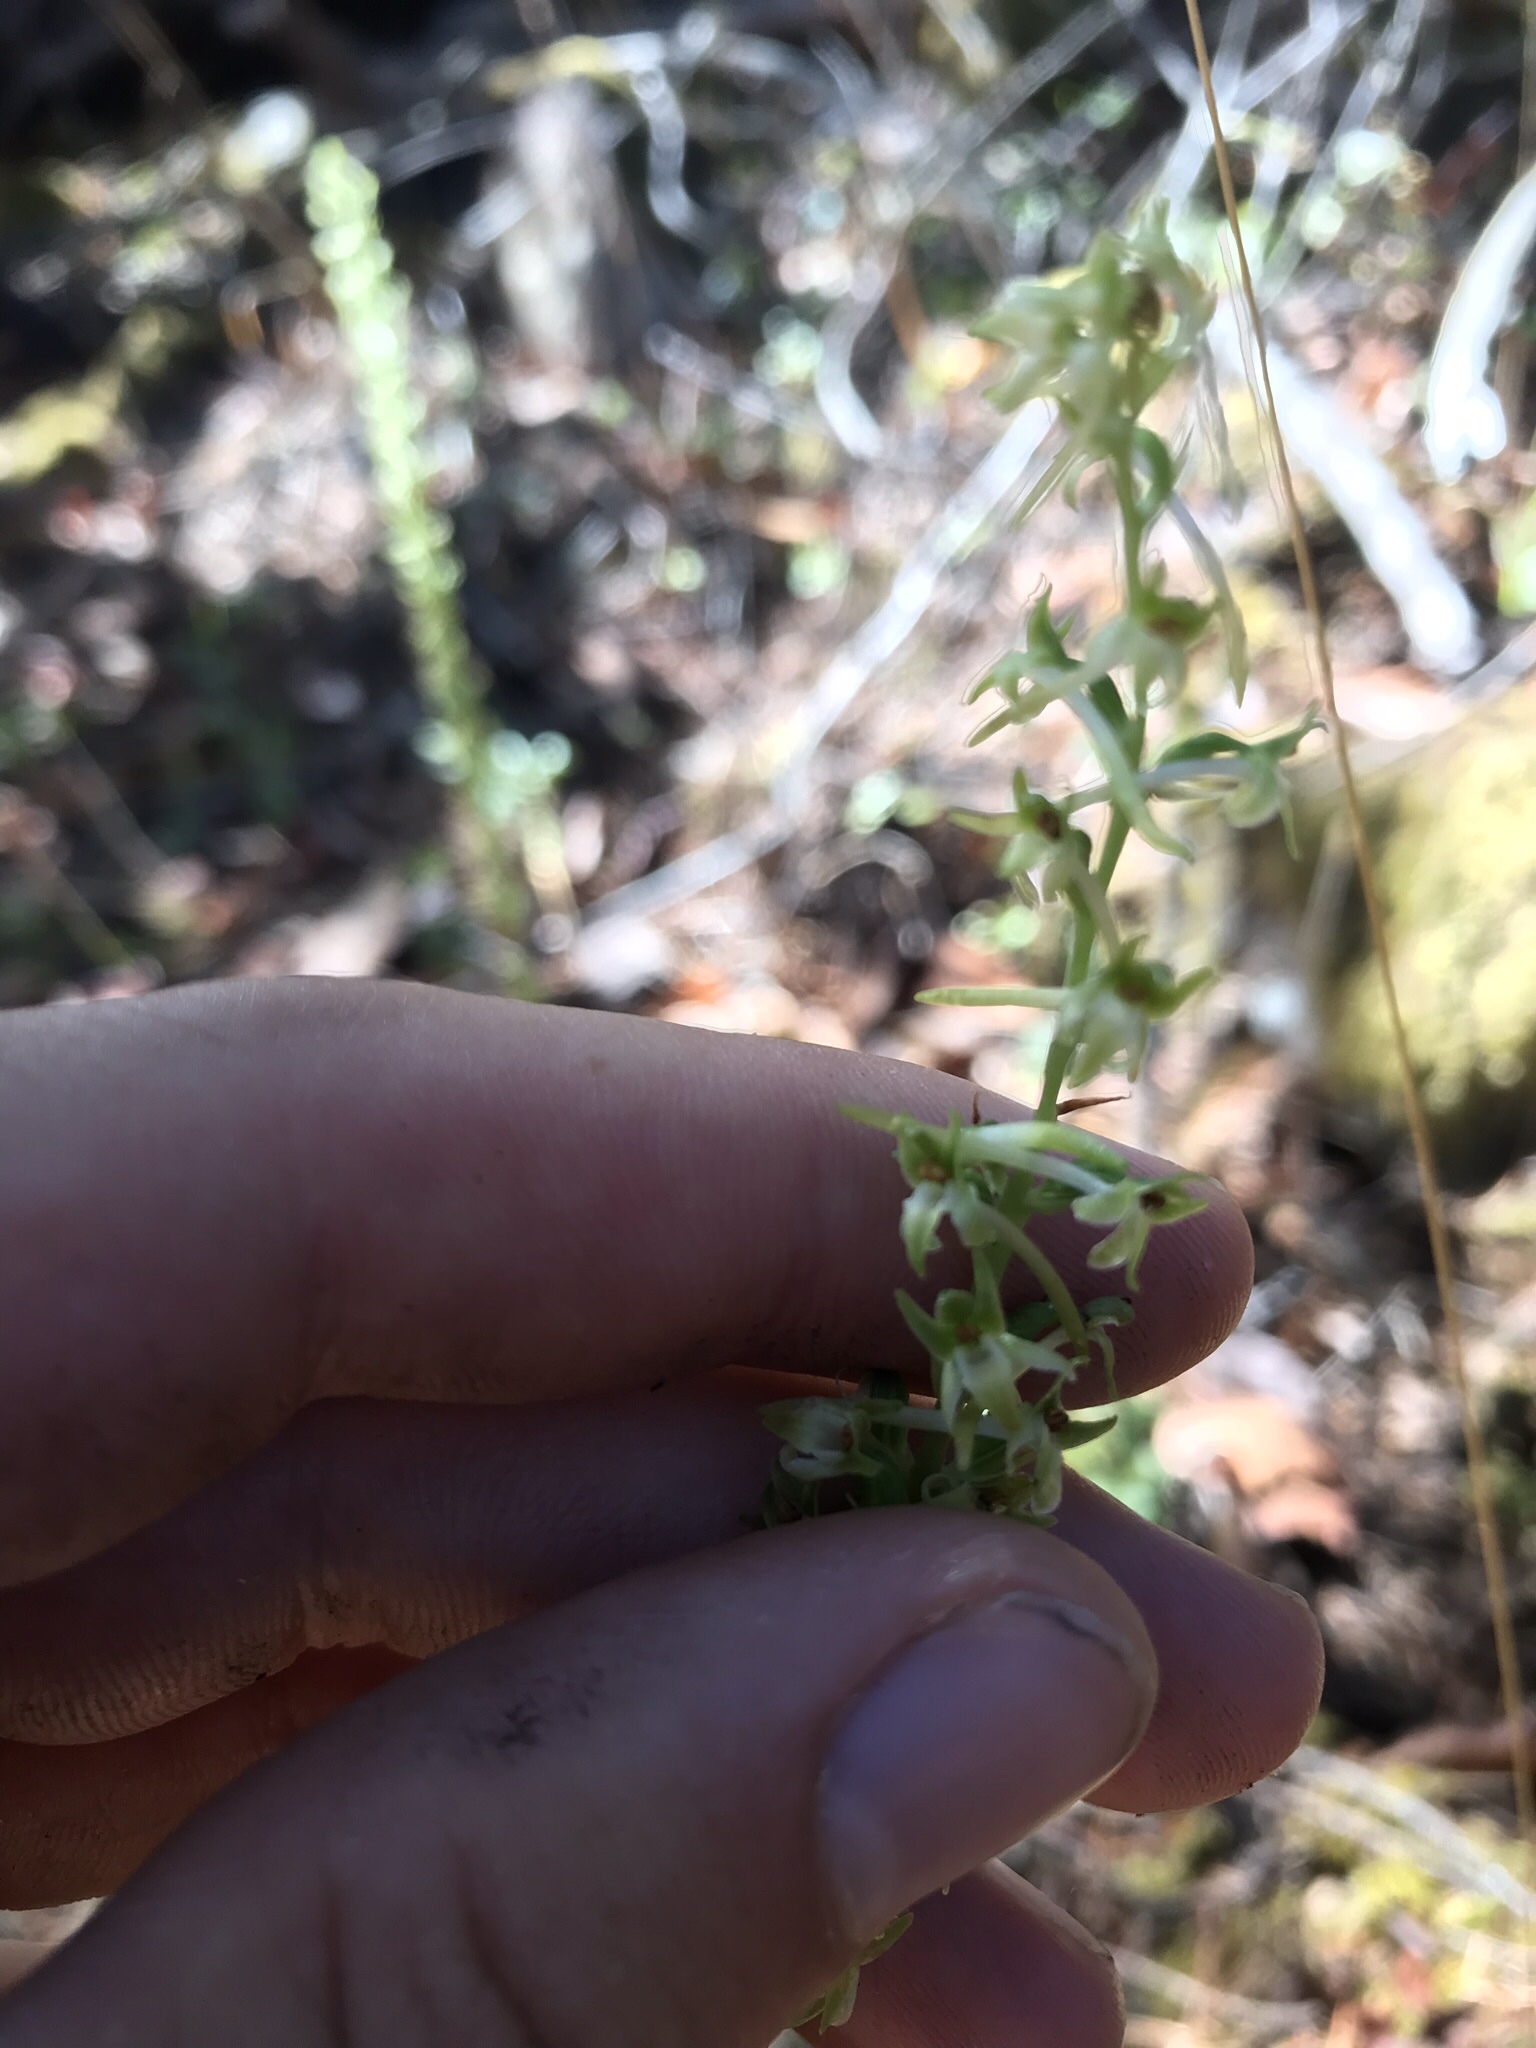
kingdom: Plantae
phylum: Tracheophyta
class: Liliopsida
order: Asparagales
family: Orchidaceae
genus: Platanthera
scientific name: Platanthera elongata
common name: Dense-flowered rein orchid
